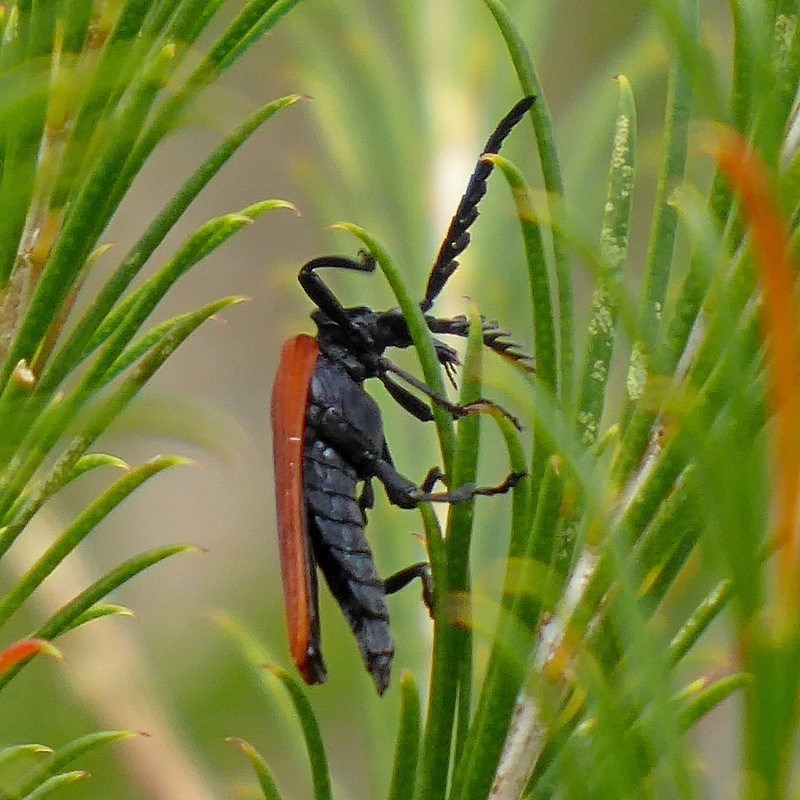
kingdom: Animalia
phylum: Arthropoda
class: Insecta
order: Coleoptera
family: Lycidae
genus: Porrostoma
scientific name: Porrostoma rhipidium
